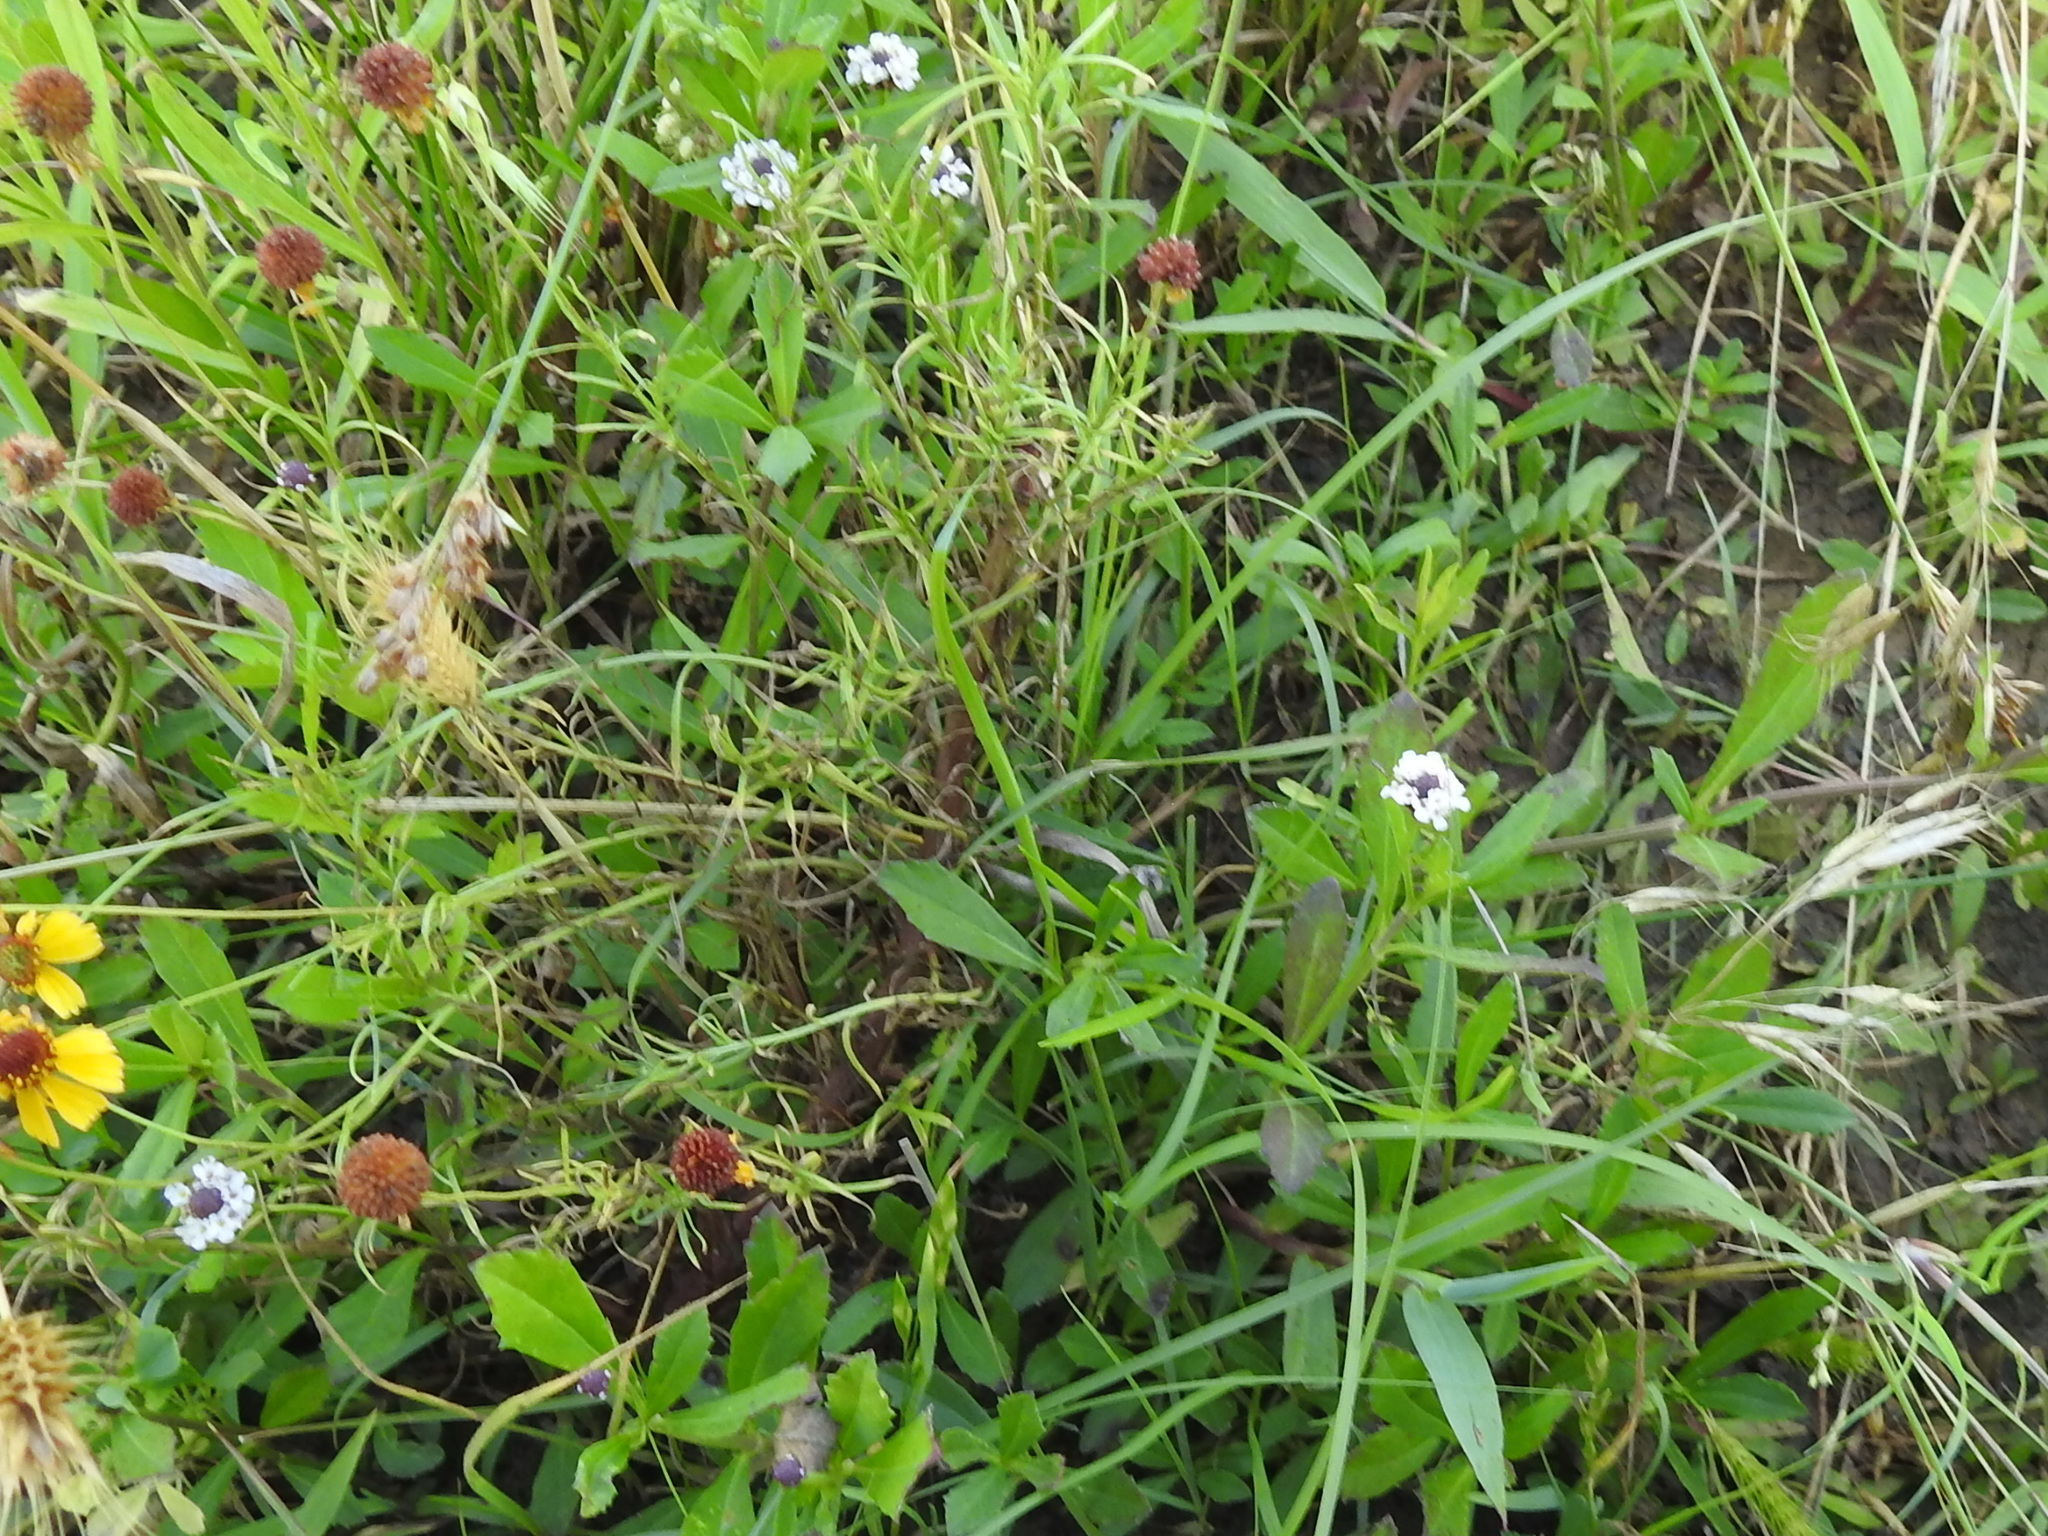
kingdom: Plantae
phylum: Tracheophyta
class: Magnoliopsida
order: Lamiales
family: Verbenaceae
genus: Phyla
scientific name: Phyla nodiflora
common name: Frogfruit
